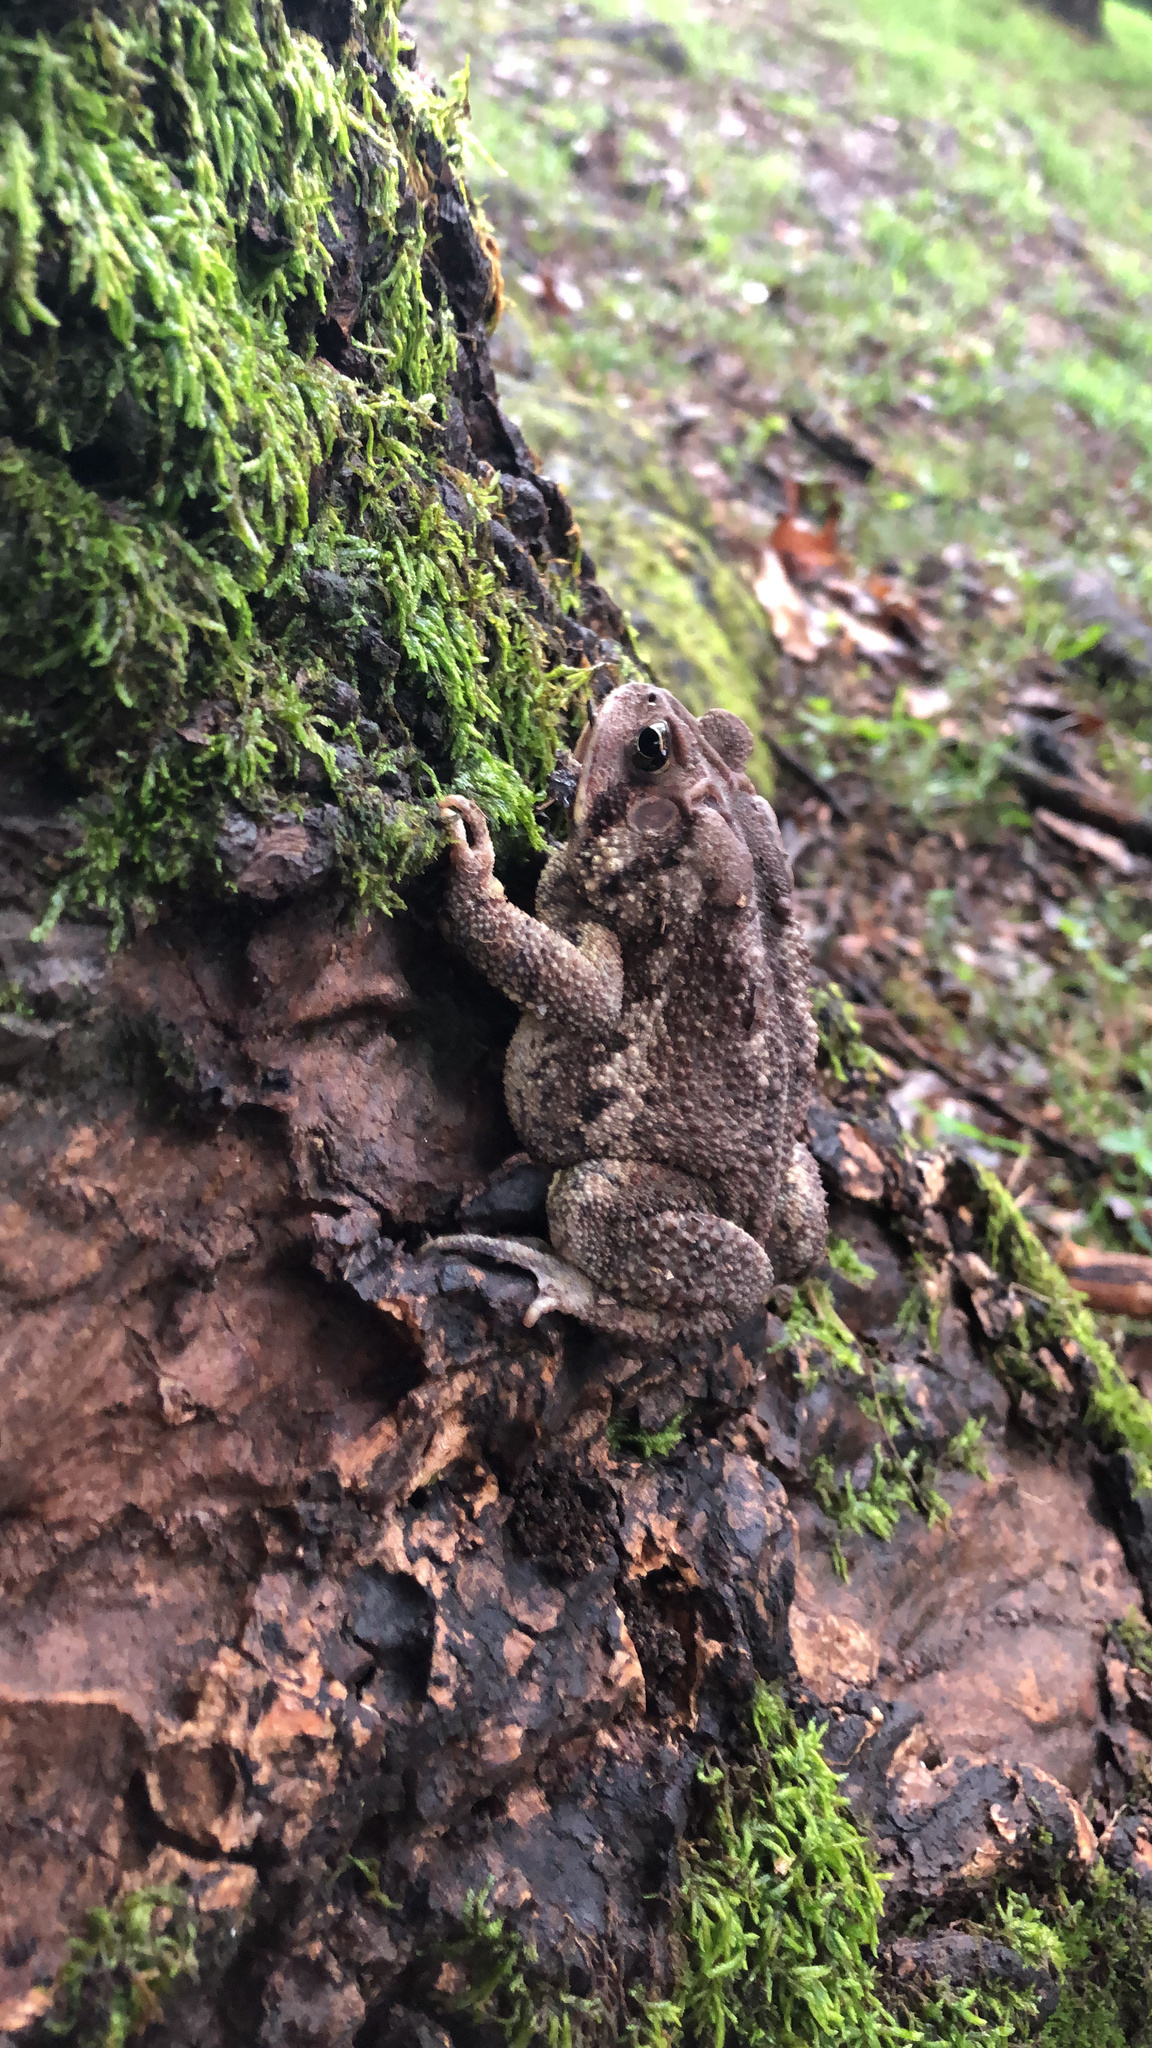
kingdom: Animalia
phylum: Chordata
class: Amphibia
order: Anura
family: Bufonidae
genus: Anaxyrus
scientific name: Anaxyrus americanus
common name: American toad
